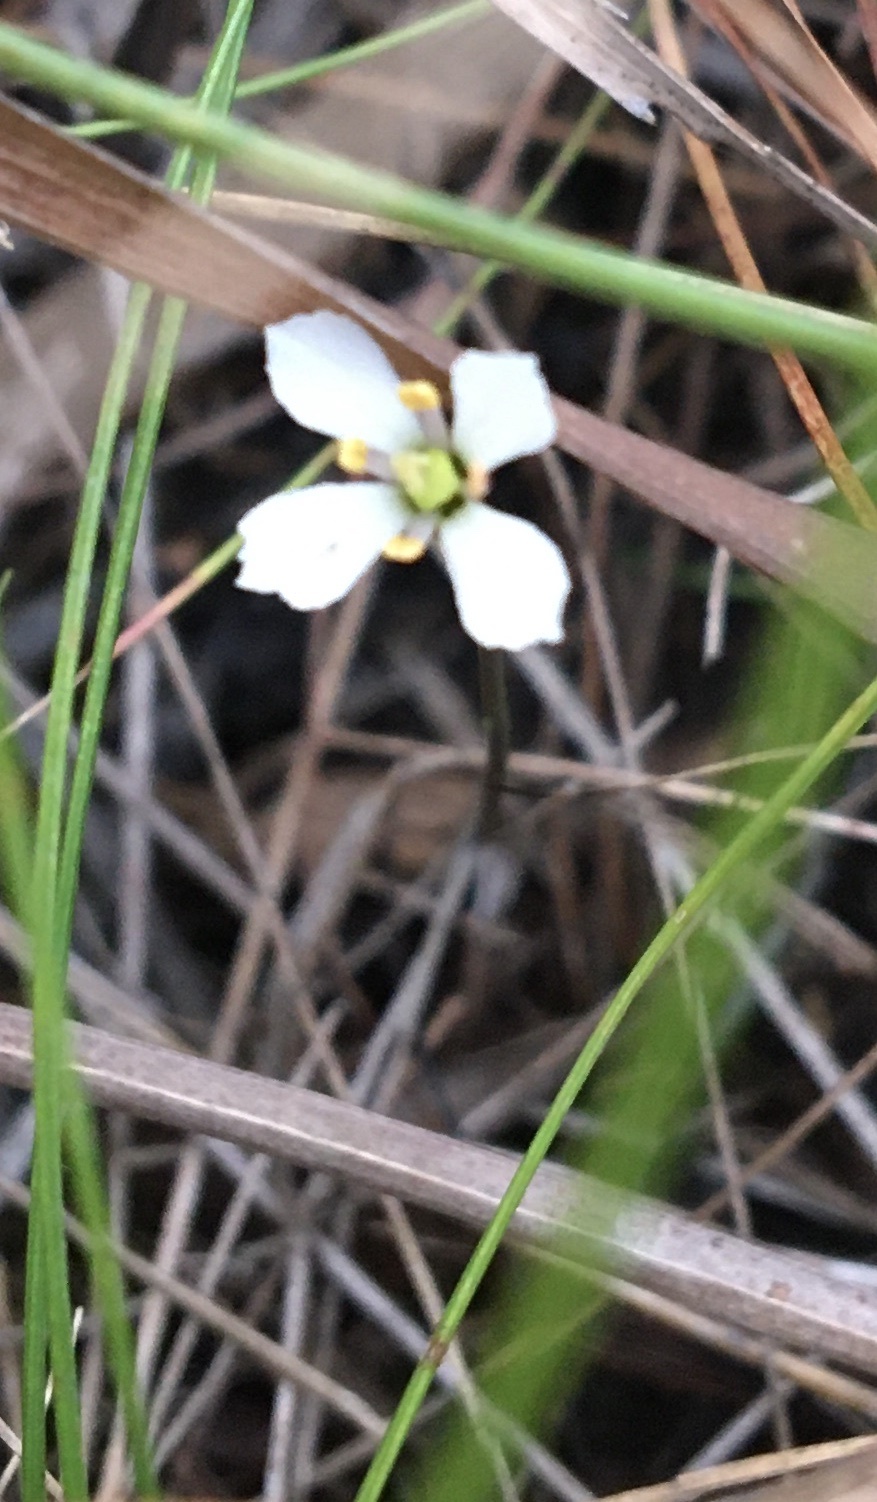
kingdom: Plantae
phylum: Tracheophyta
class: Magnoliopsida
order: Gentianales
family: Gentianaceae
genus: Bartonia
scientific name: Bartonia verna
